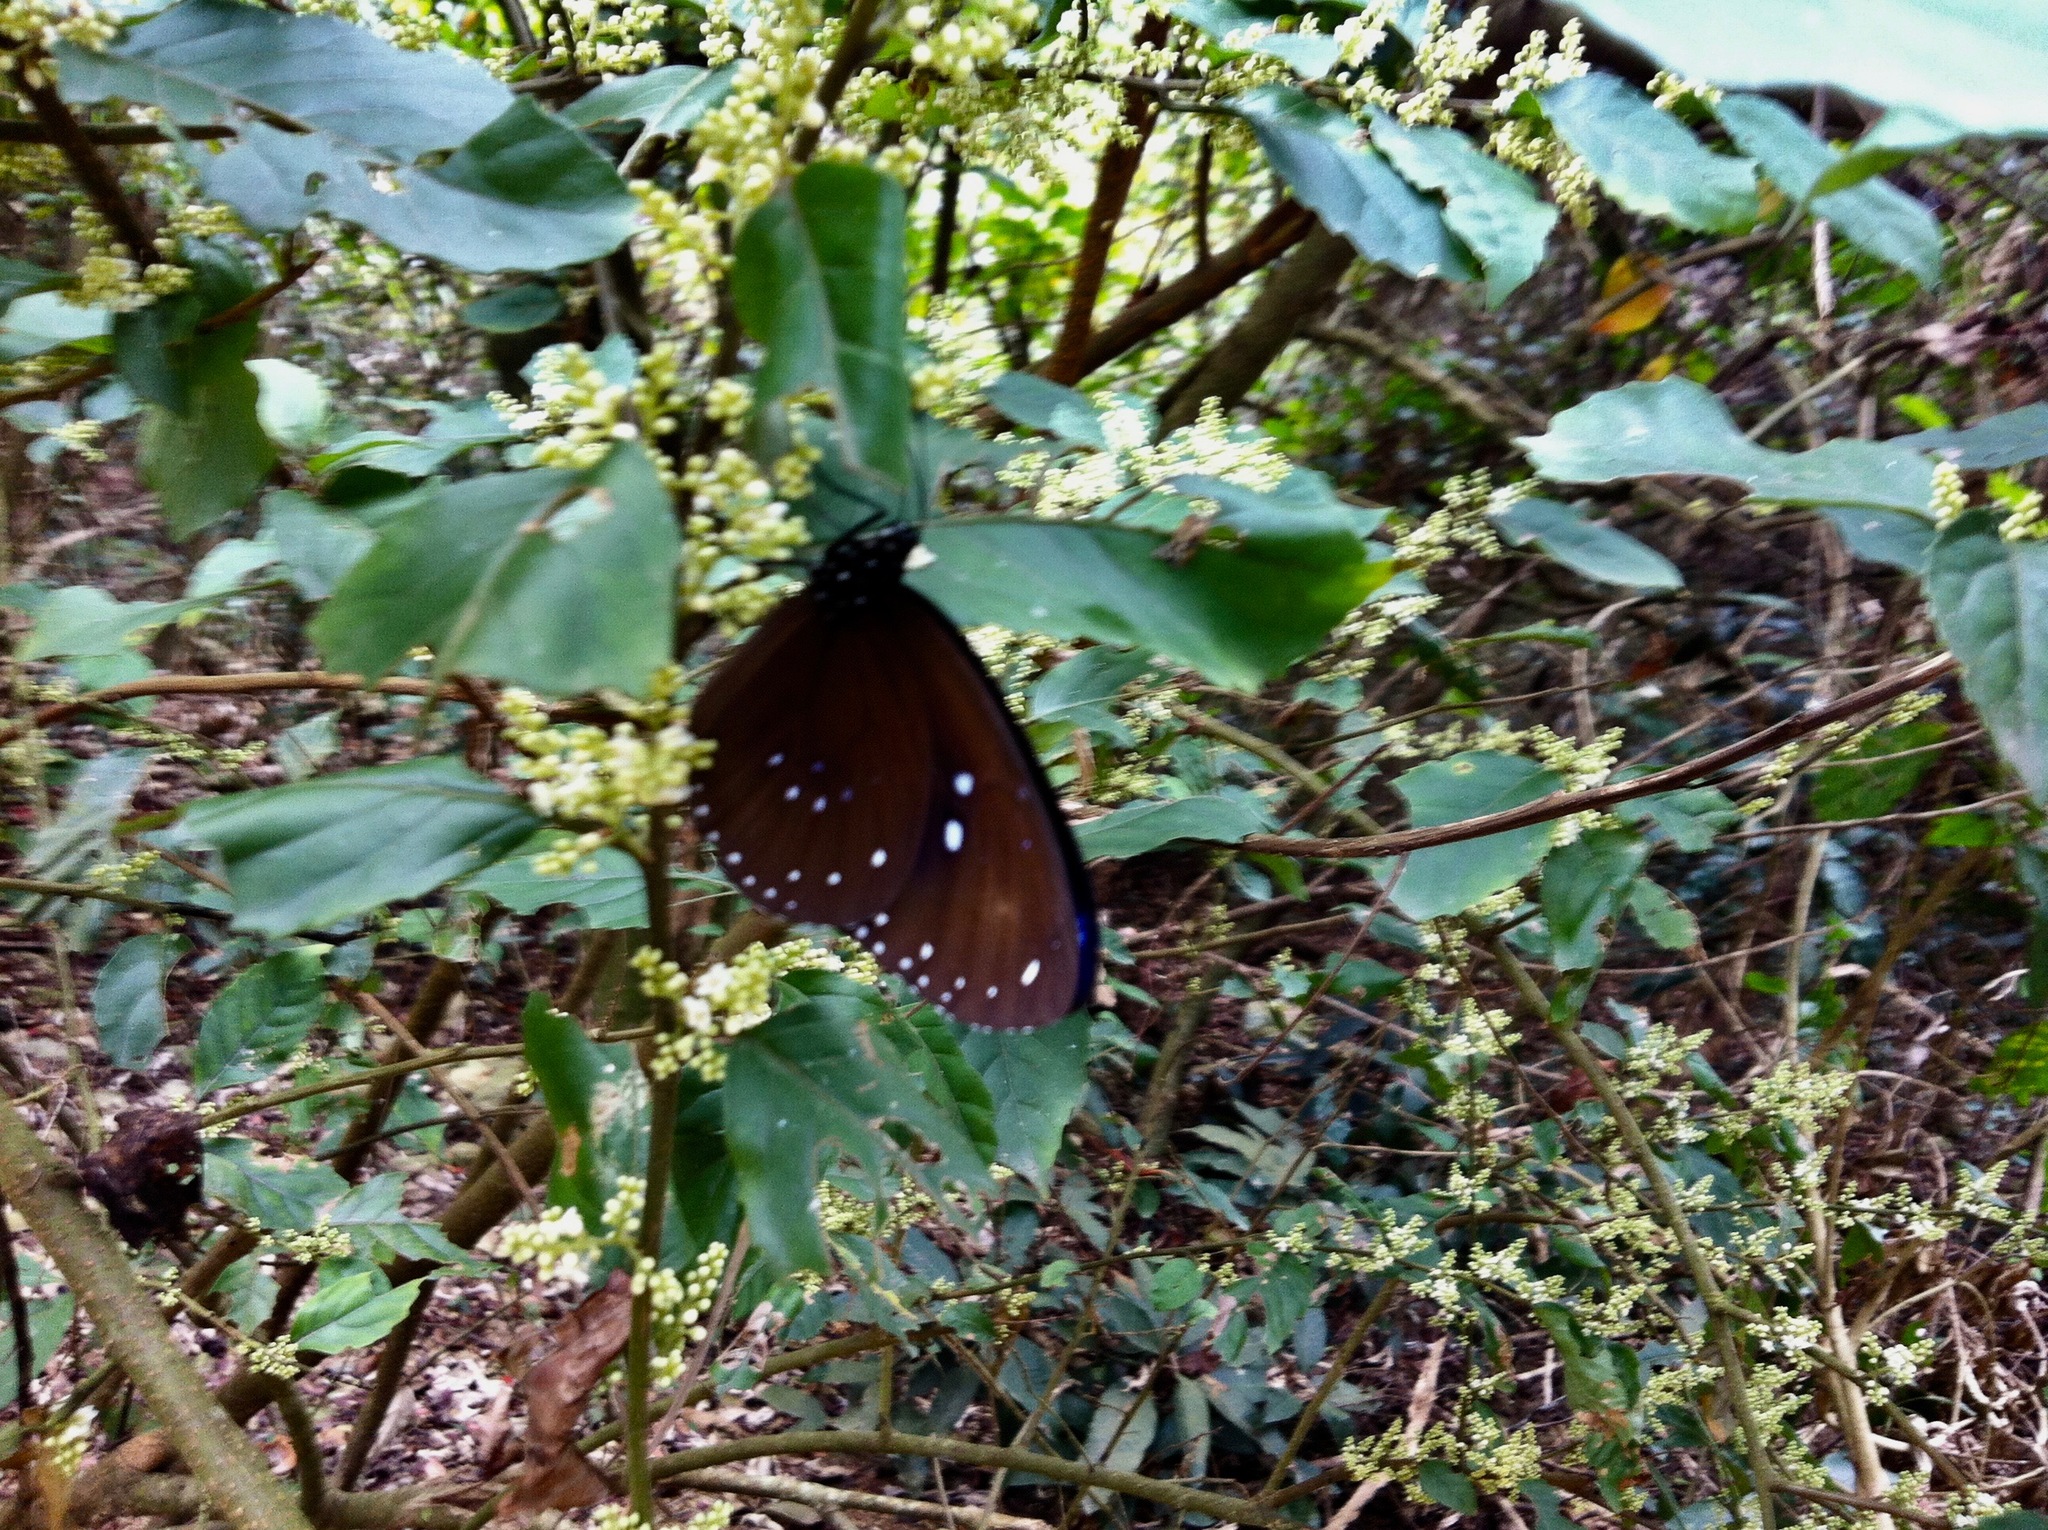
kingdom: Animalia
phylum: Arthropoda
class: Insecta
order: Lepidoptera
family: Nymphalidae
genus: Euploea
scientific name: Euploea sylvester
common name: Double-branded crow butterfly
